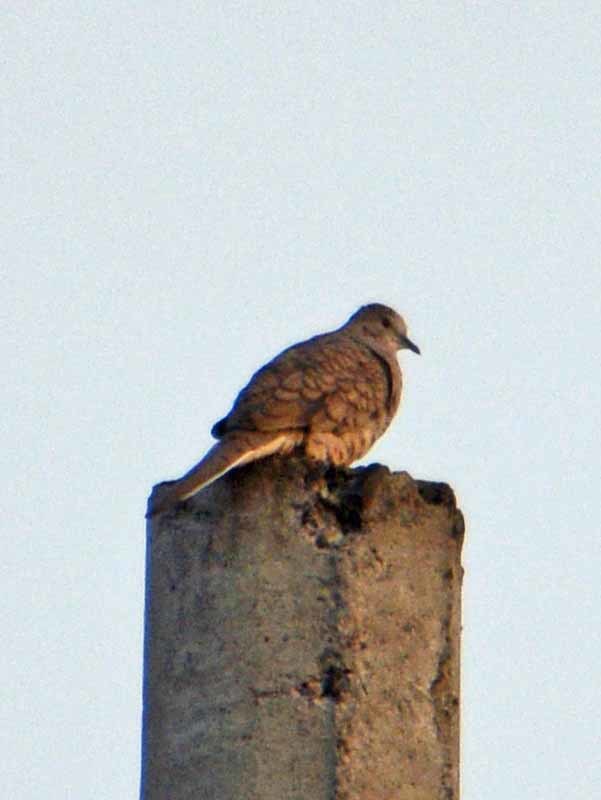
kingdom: Animalia
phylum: Chordata
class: Aves
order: Columbiformes
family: Columbidae
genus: Columbina
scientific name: Columbina inca
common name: Inca dove
